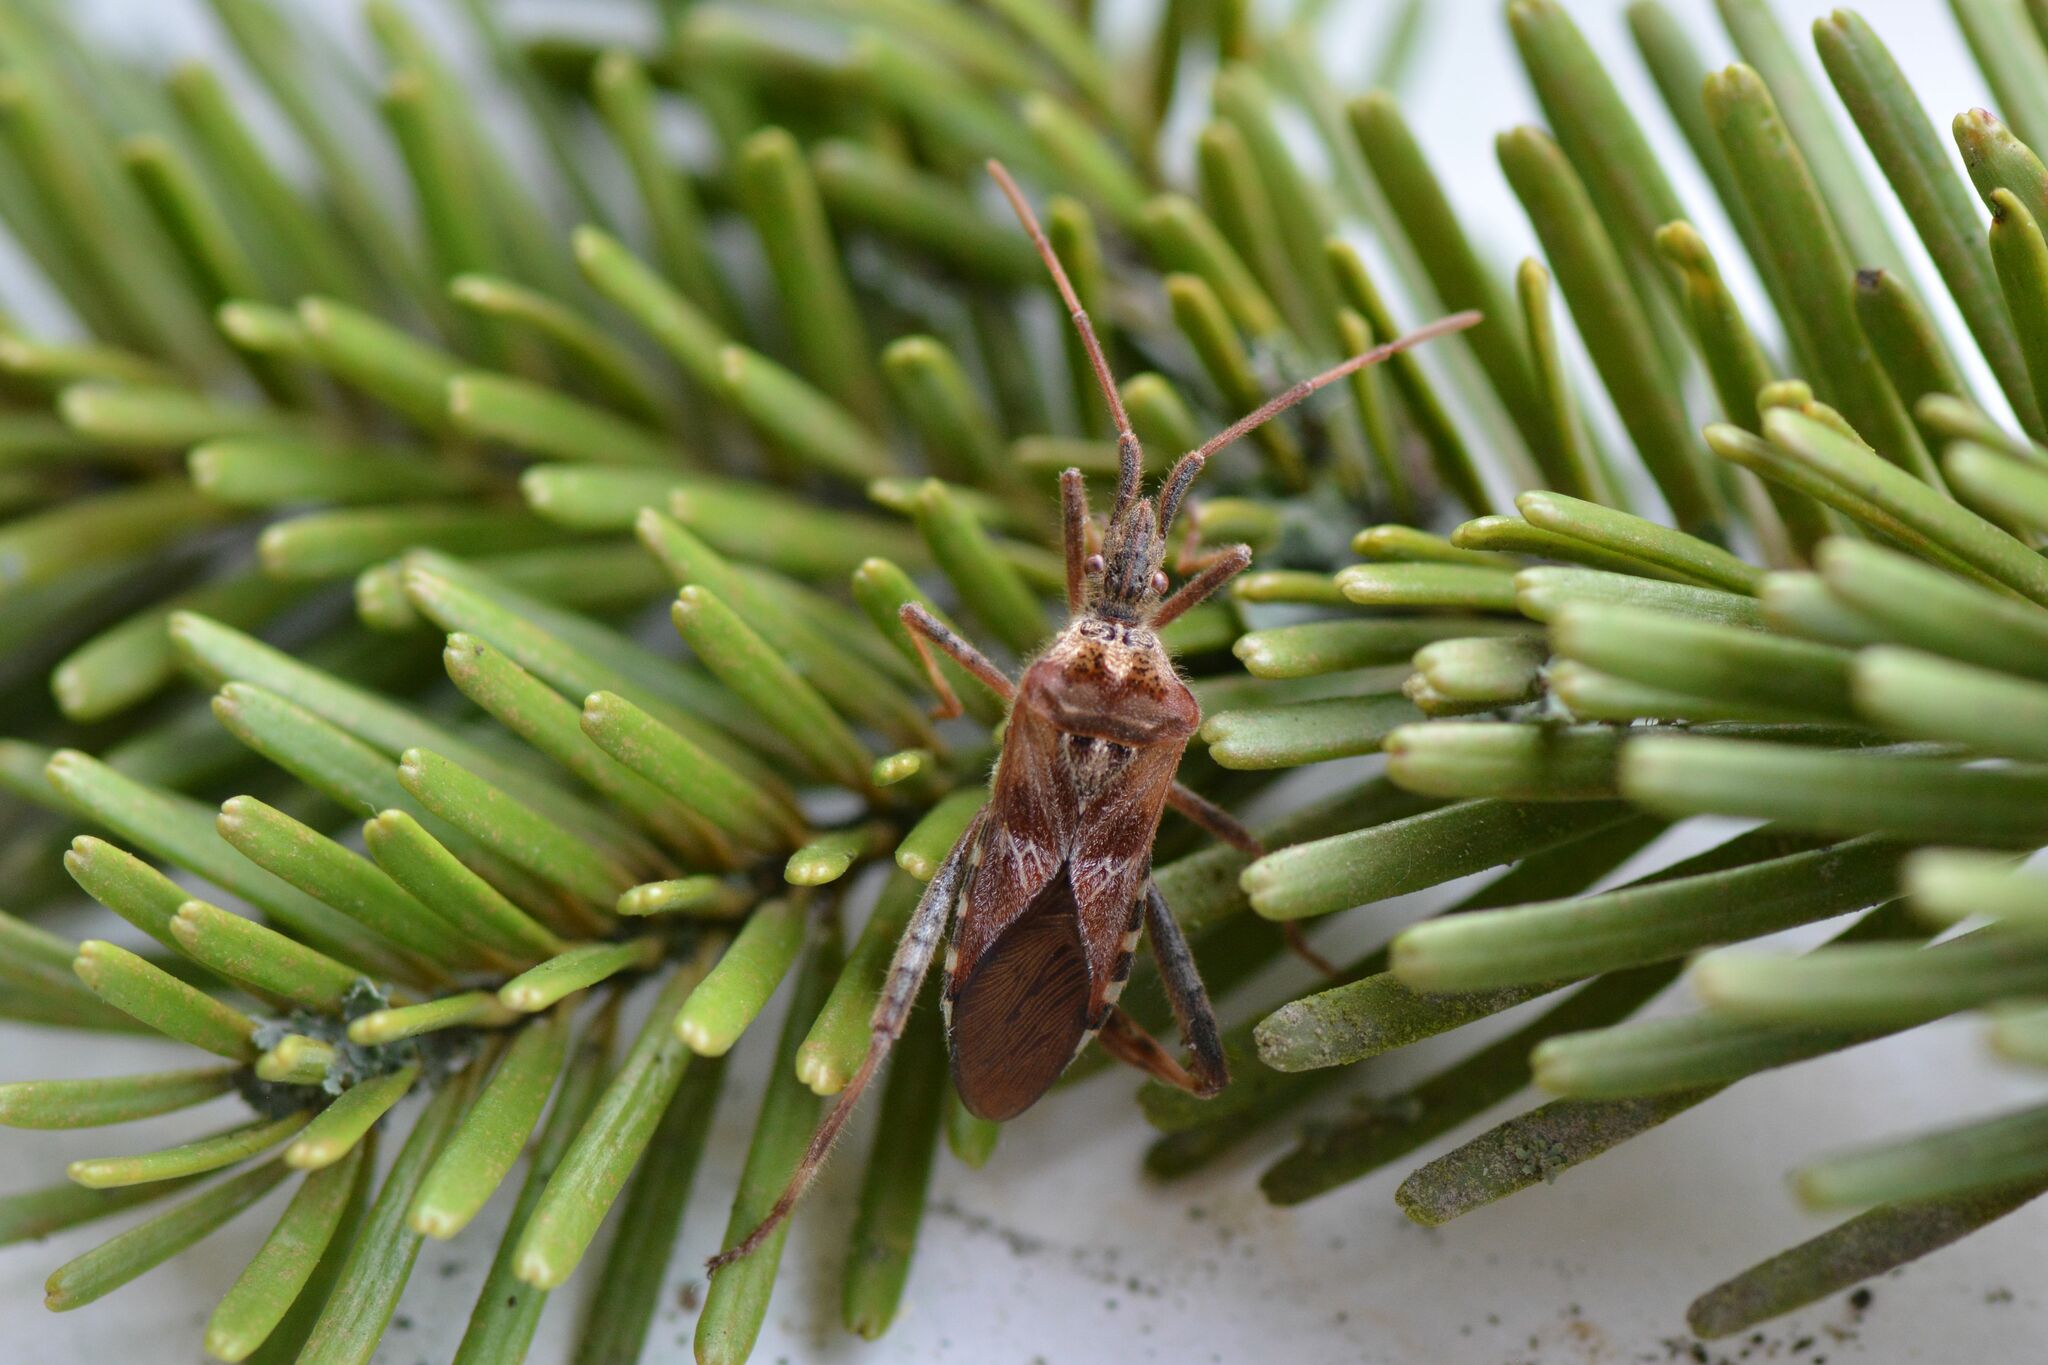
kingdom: Animalia
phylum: Arthropoda
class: Insecta
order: Hemiptera
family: Coreidae
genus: Leptoglossus
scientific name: Leptoglossus occidentalis
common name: Western conifer-seed bug
